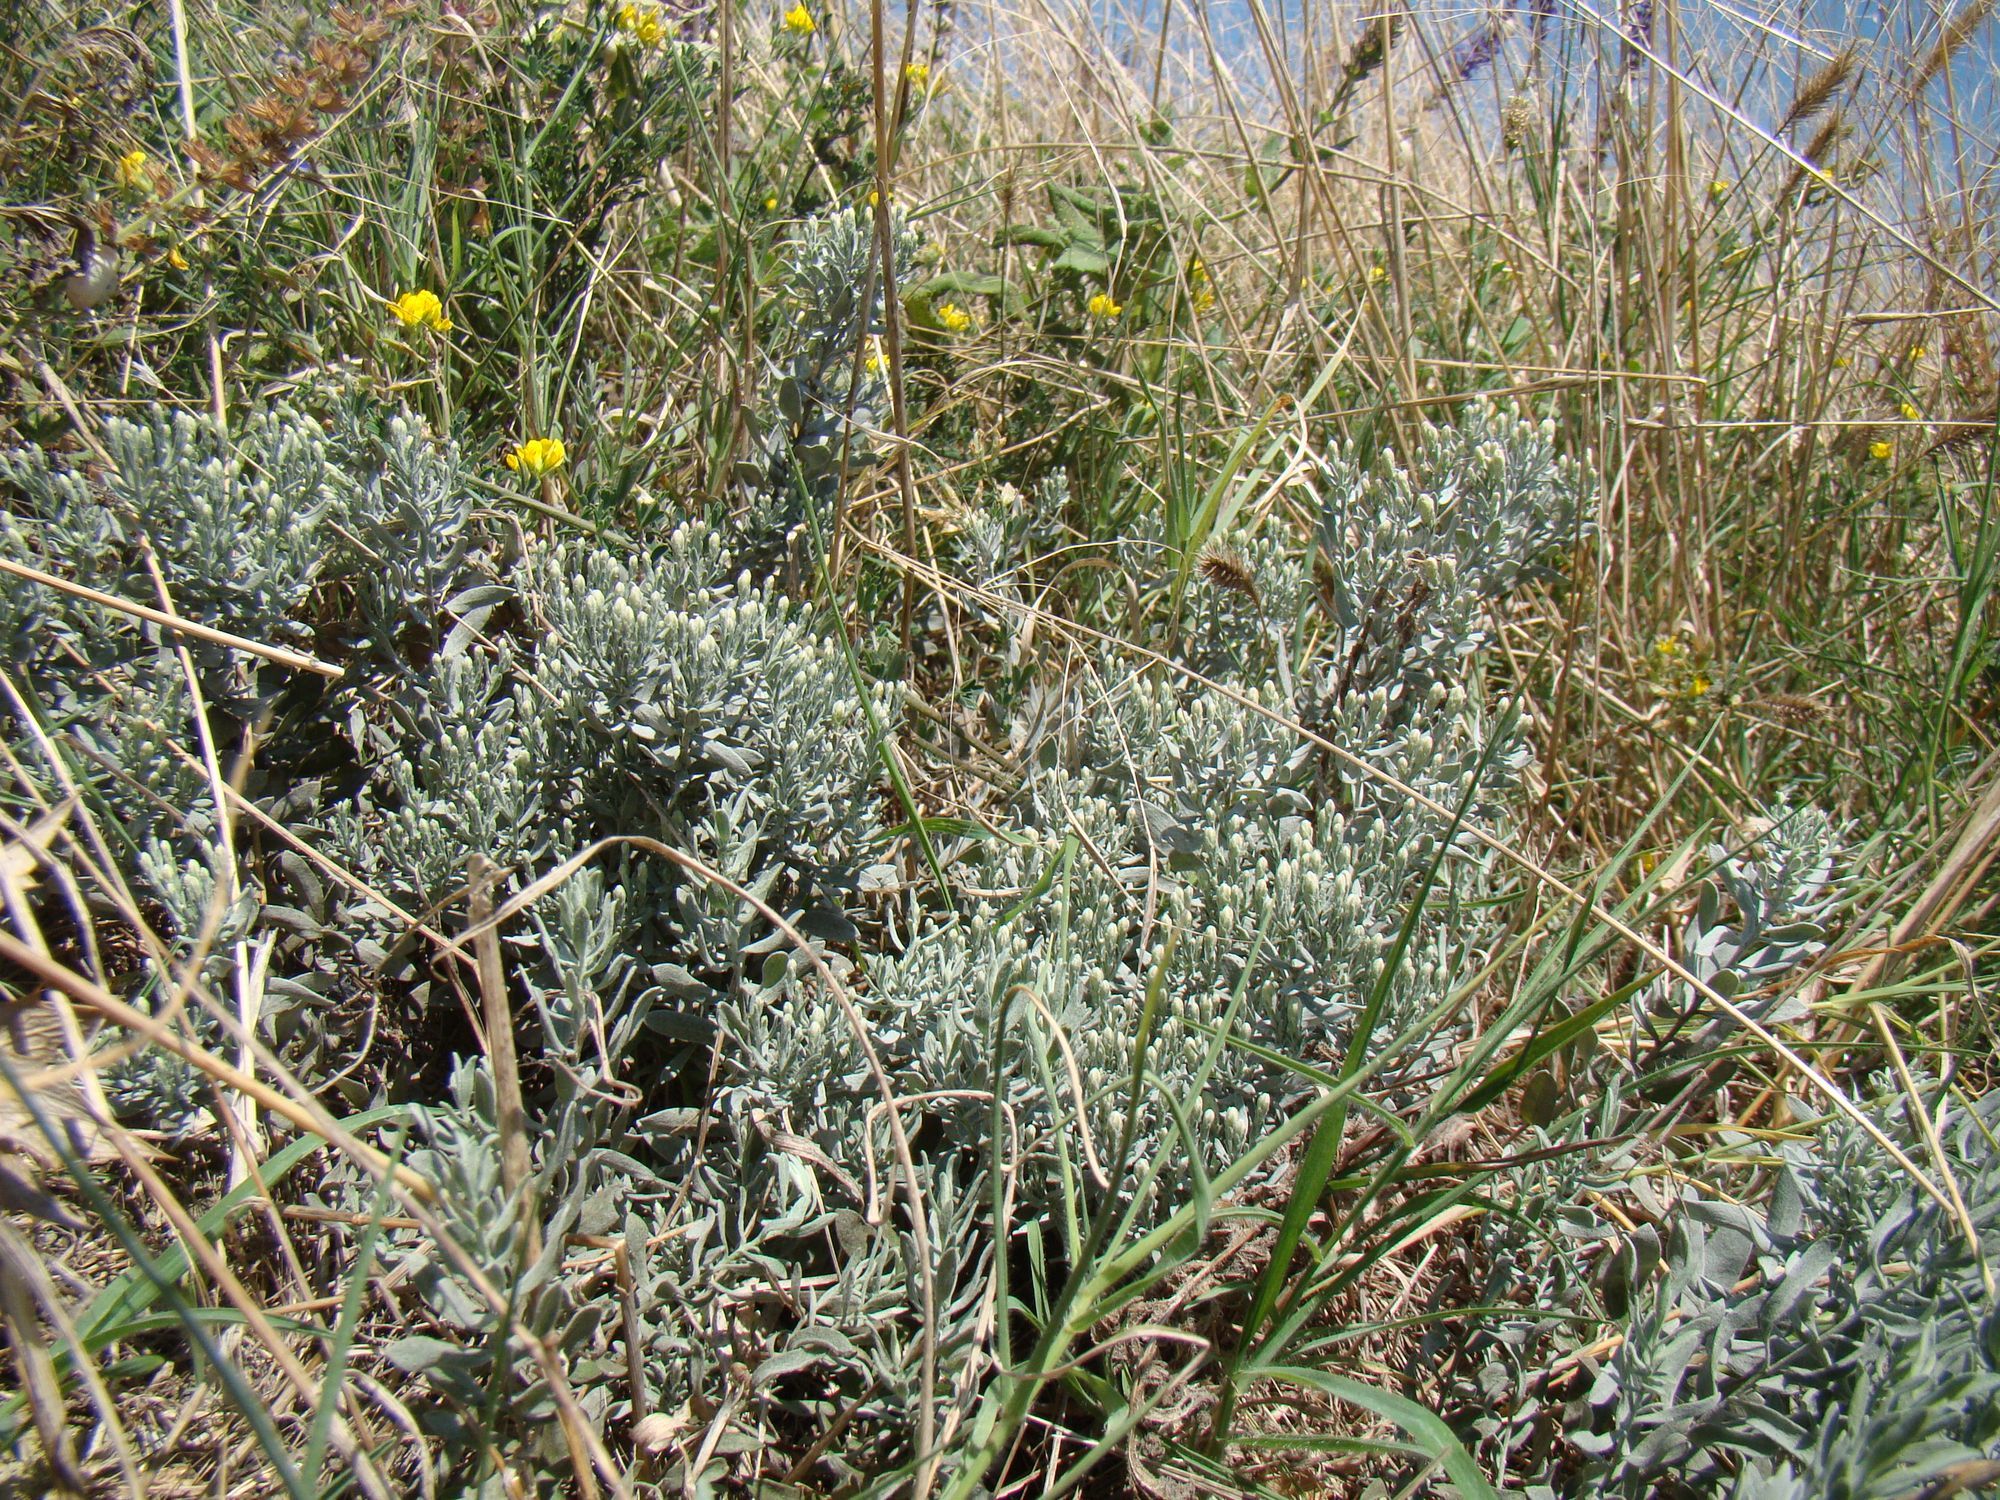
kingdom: Plantae
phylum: Tracheophyta
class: Magnoliopsida
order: Asterales
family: Asteraceae
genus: Galatella
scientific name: Galatella villosa
